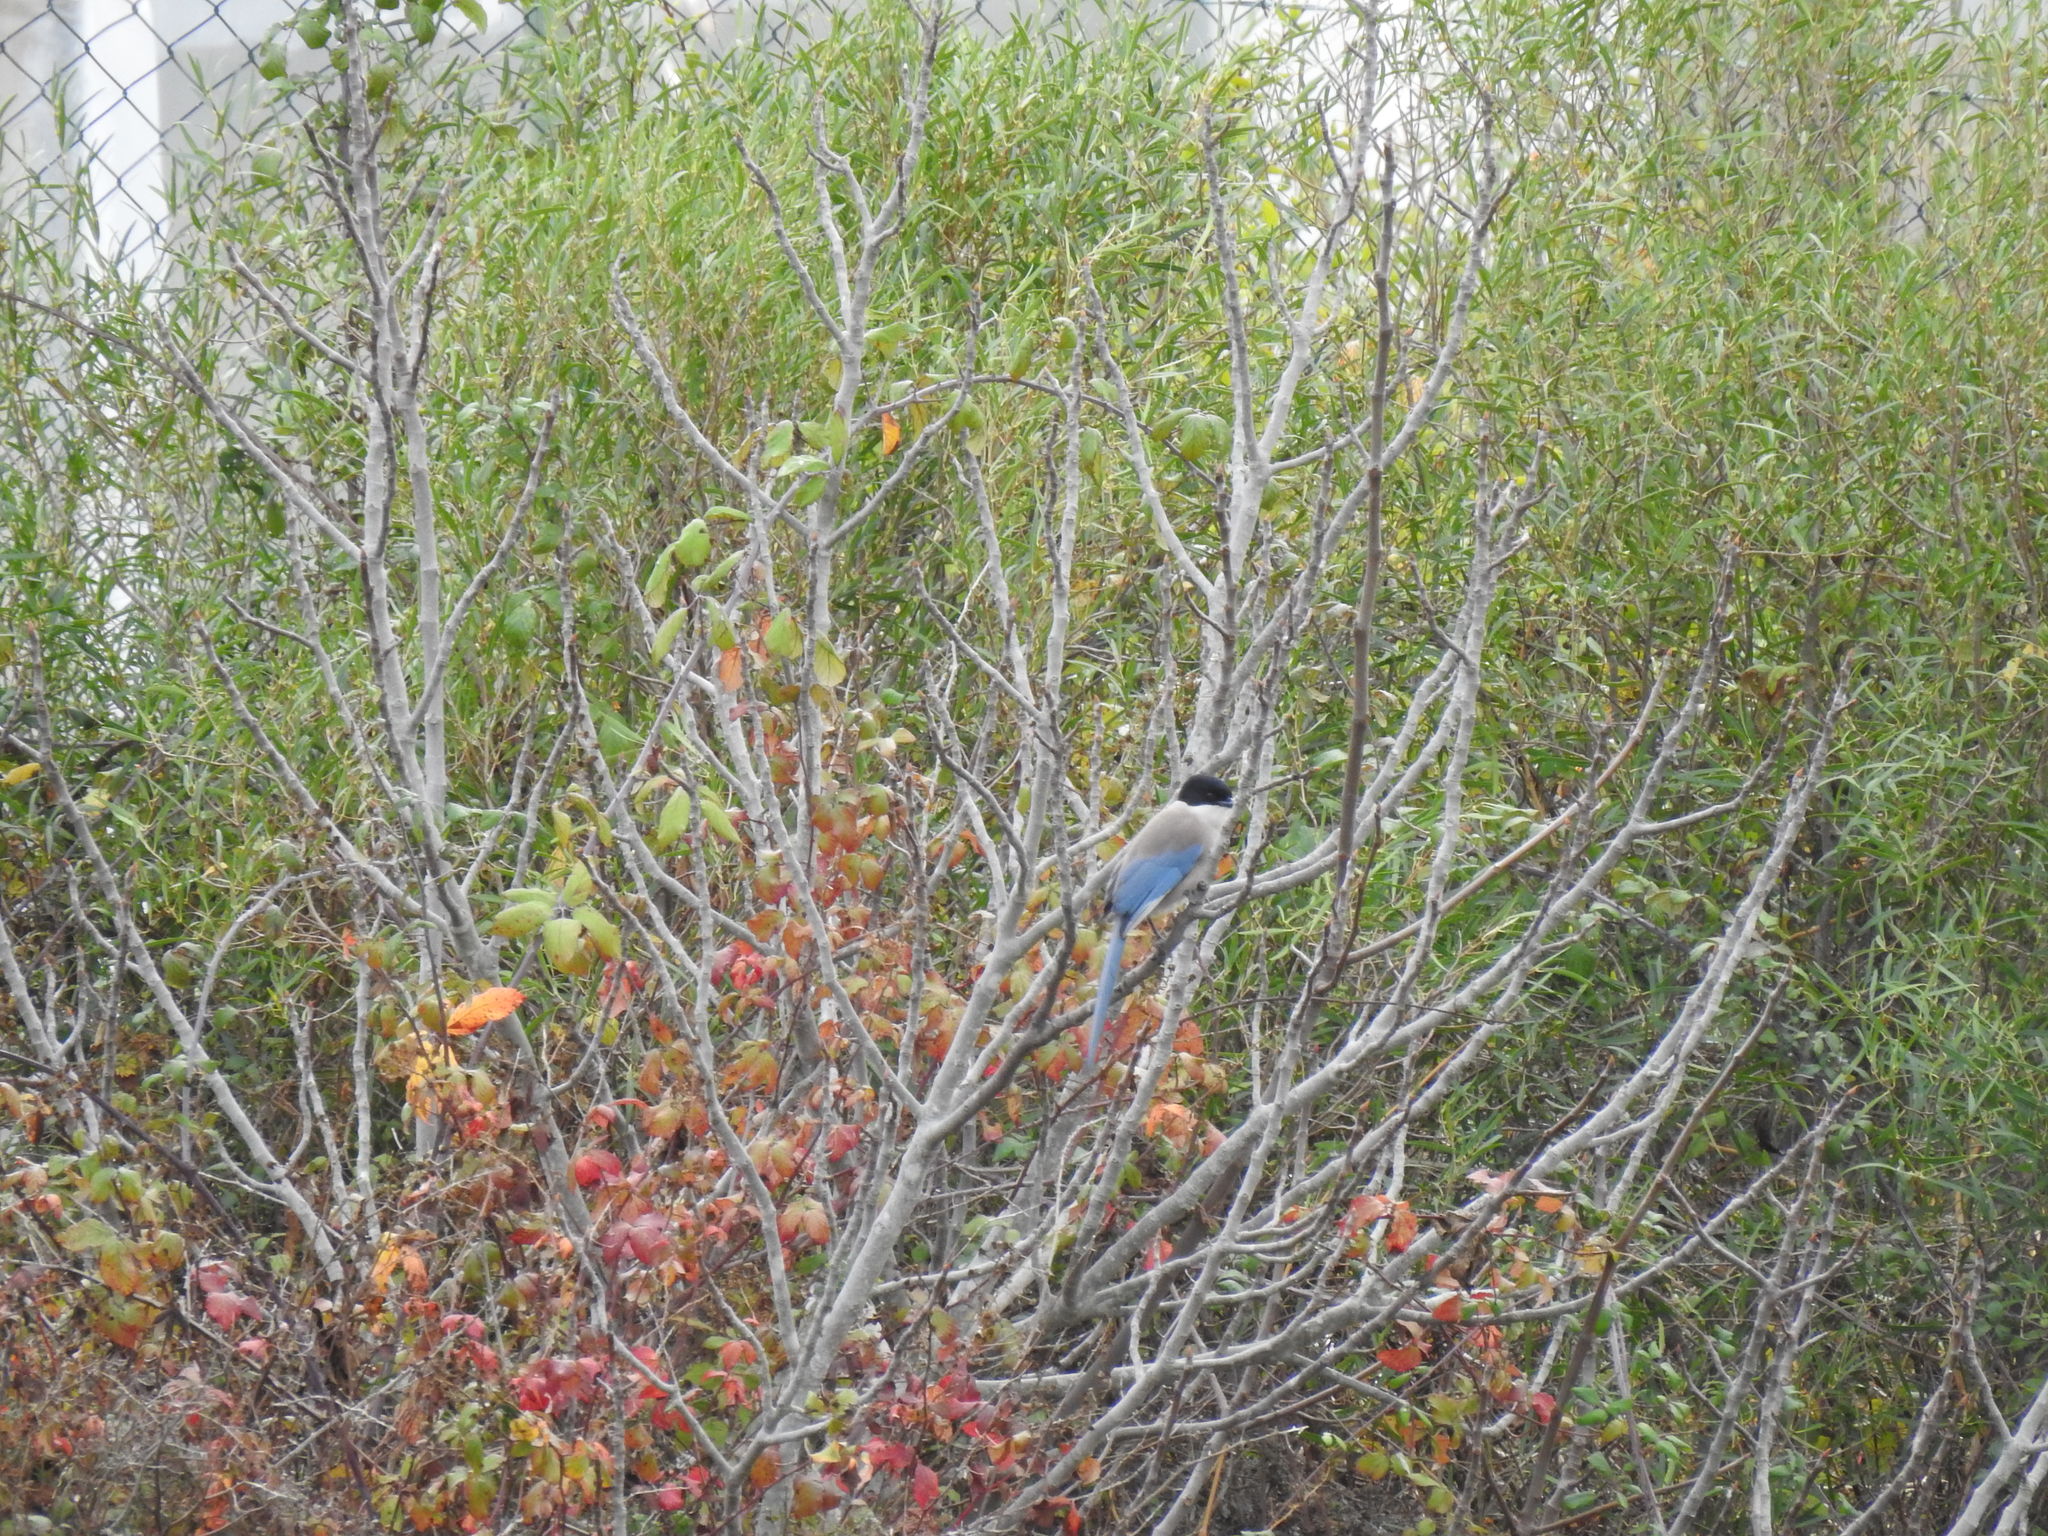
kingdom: Animalia
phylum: Chordata
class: Aves
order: Passeriformes
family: Corvidae
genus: Cyanopica
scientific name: Cyanopica cooki
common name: Iberian magpie
